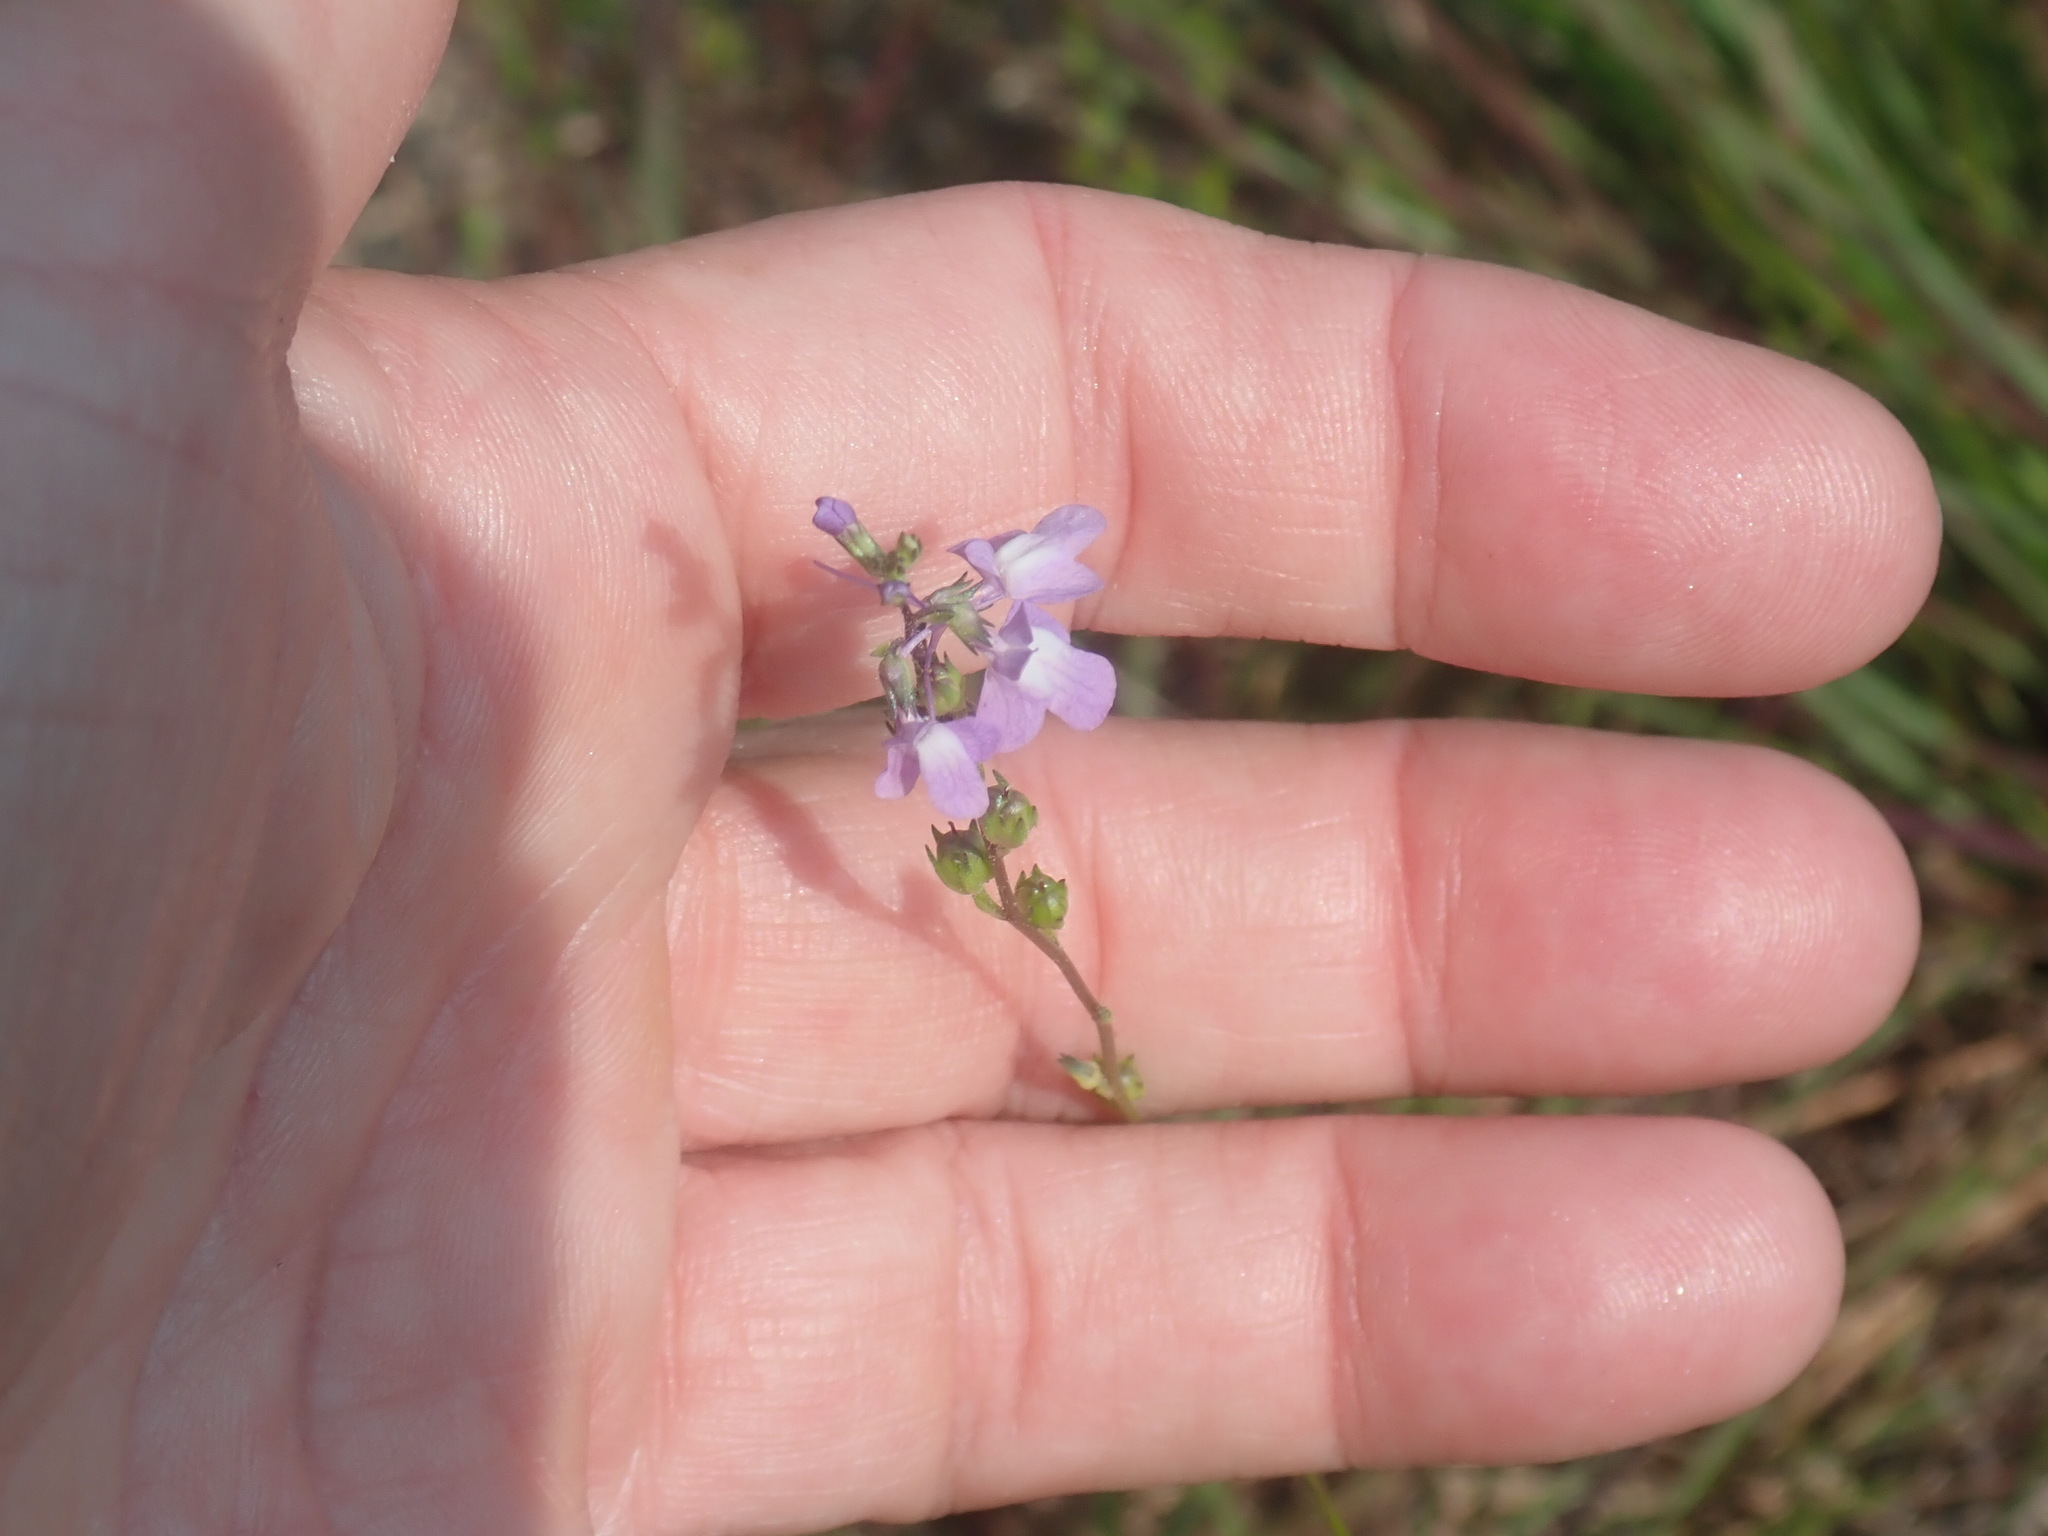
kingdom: Plantae
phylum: Tracheophyta
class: Magnoliopsida
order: Lamiales
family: Plantaginaceae
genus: Nuttallanthus
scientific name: Nuttallanthus canadensis
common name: Blue toadflax
